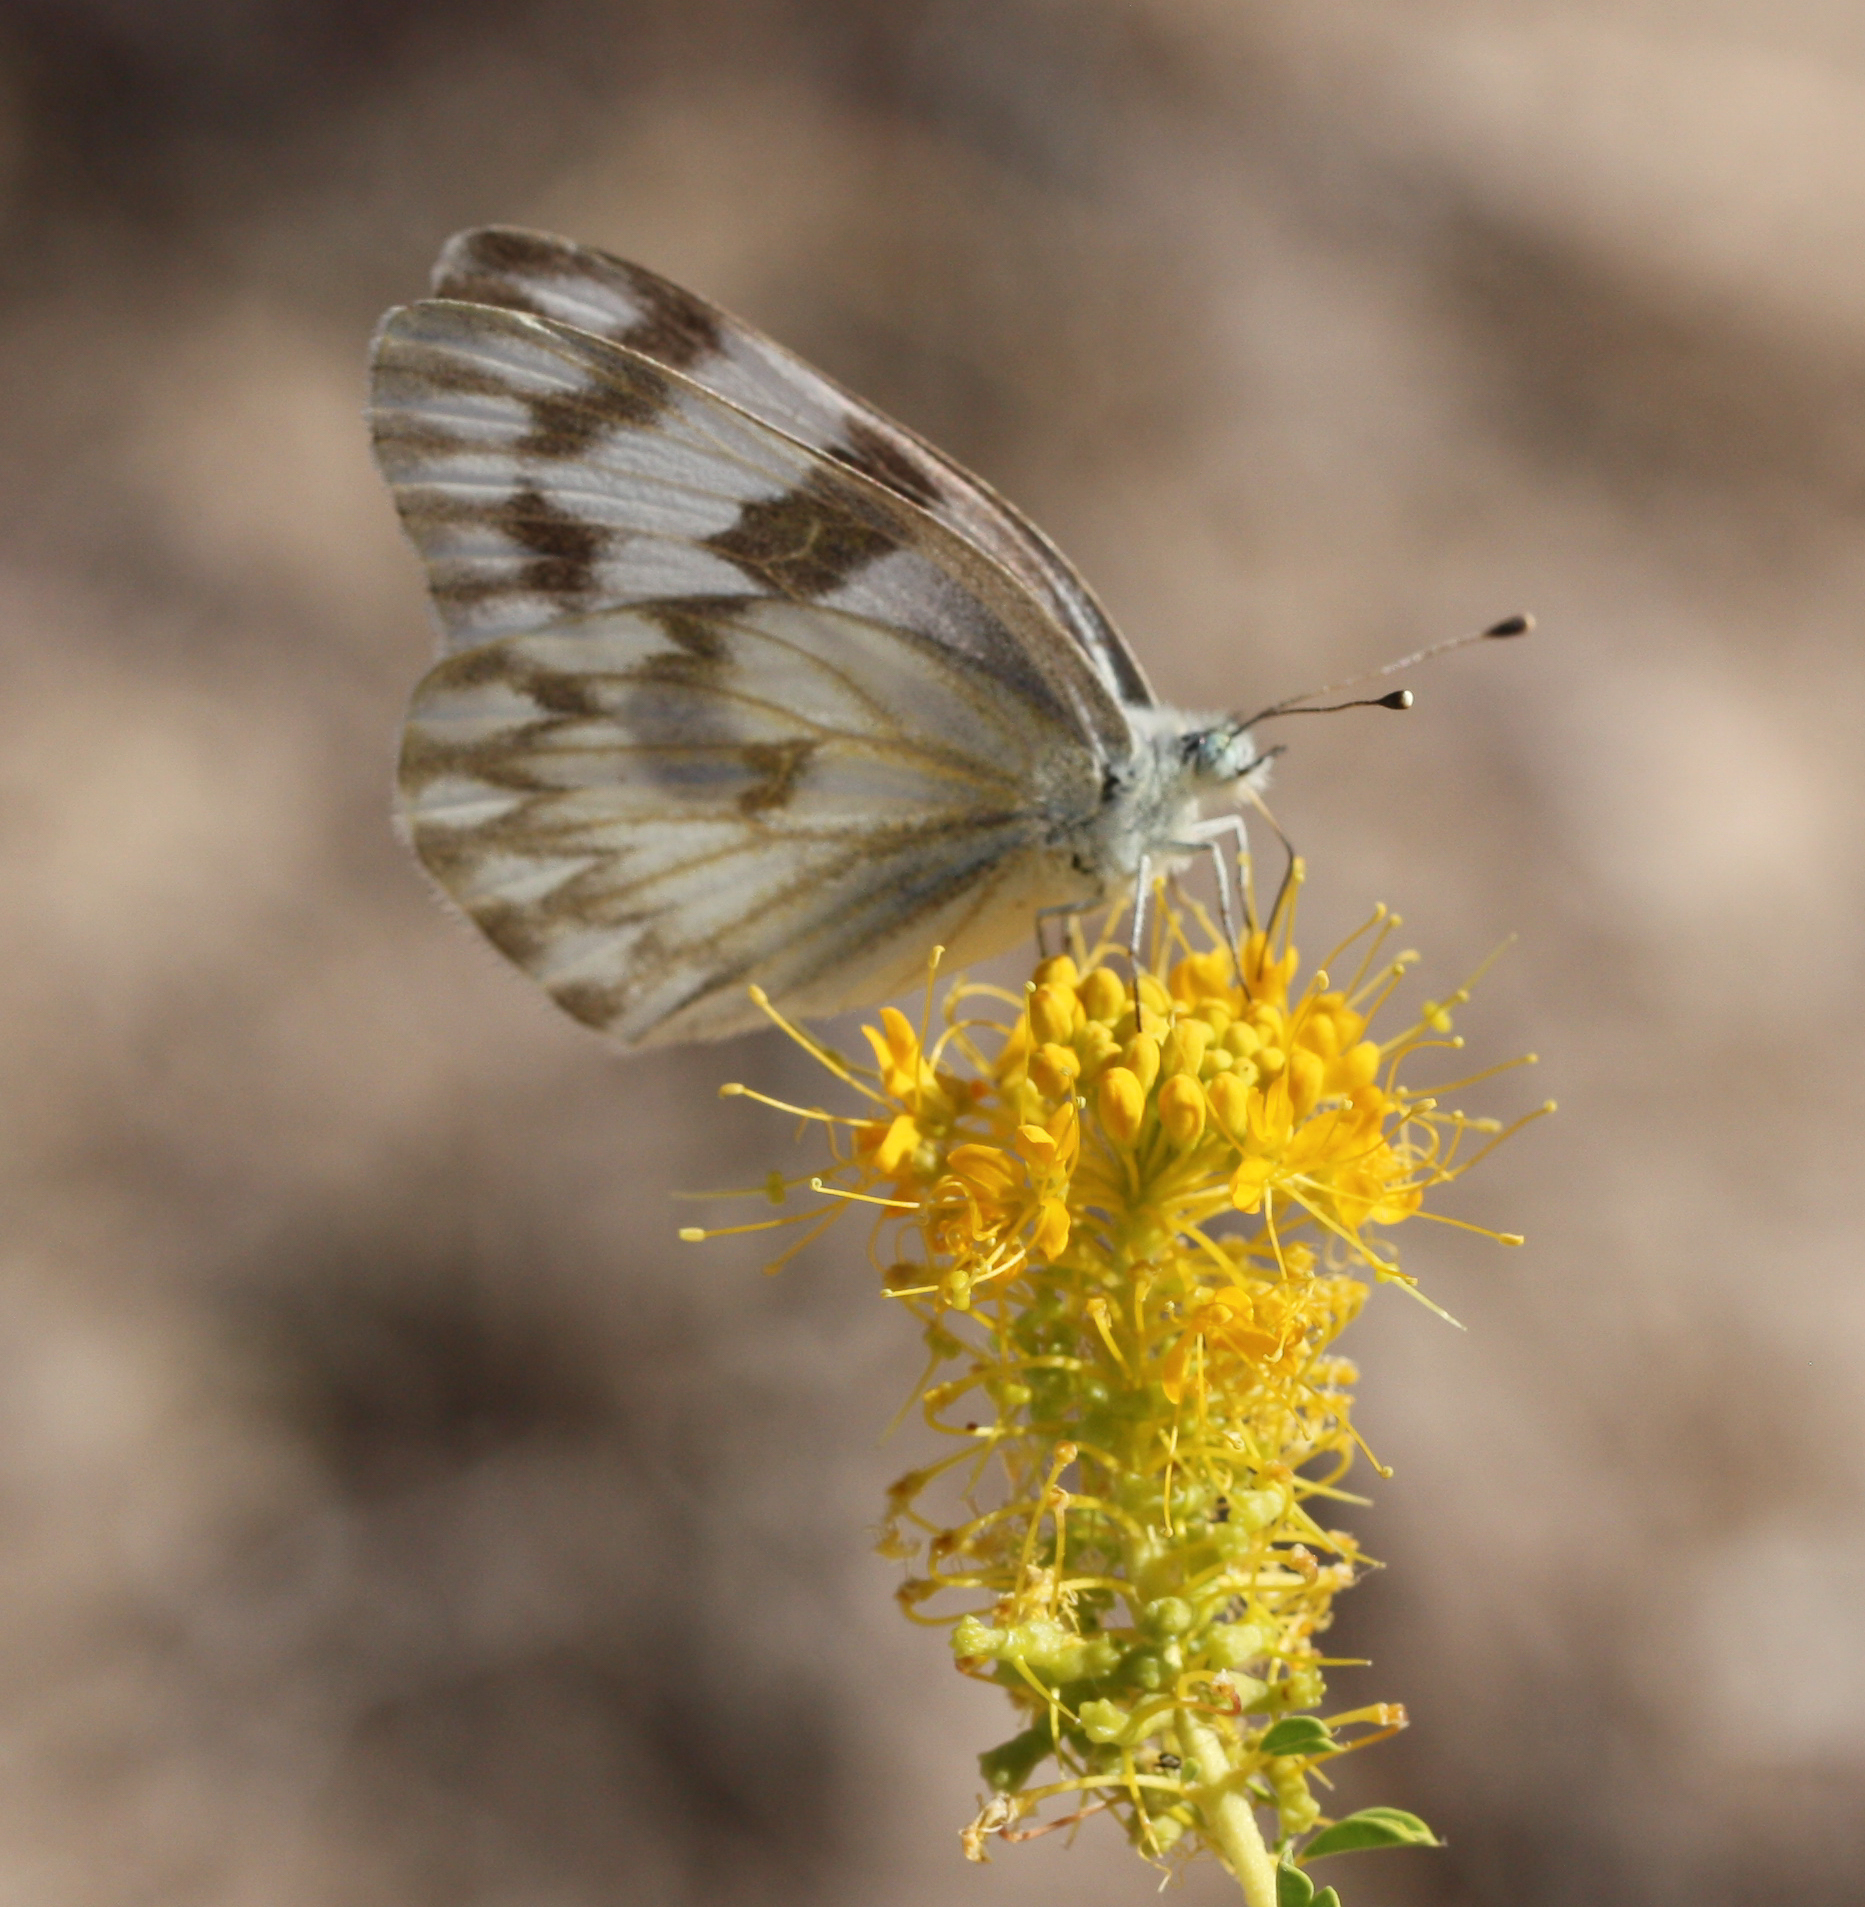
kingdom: Animalia
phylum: Arthropoda
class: Insecta
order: Lepidoptera
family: Pieridae
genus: Pontia
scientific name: Pontia protodice
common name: Checkered white
